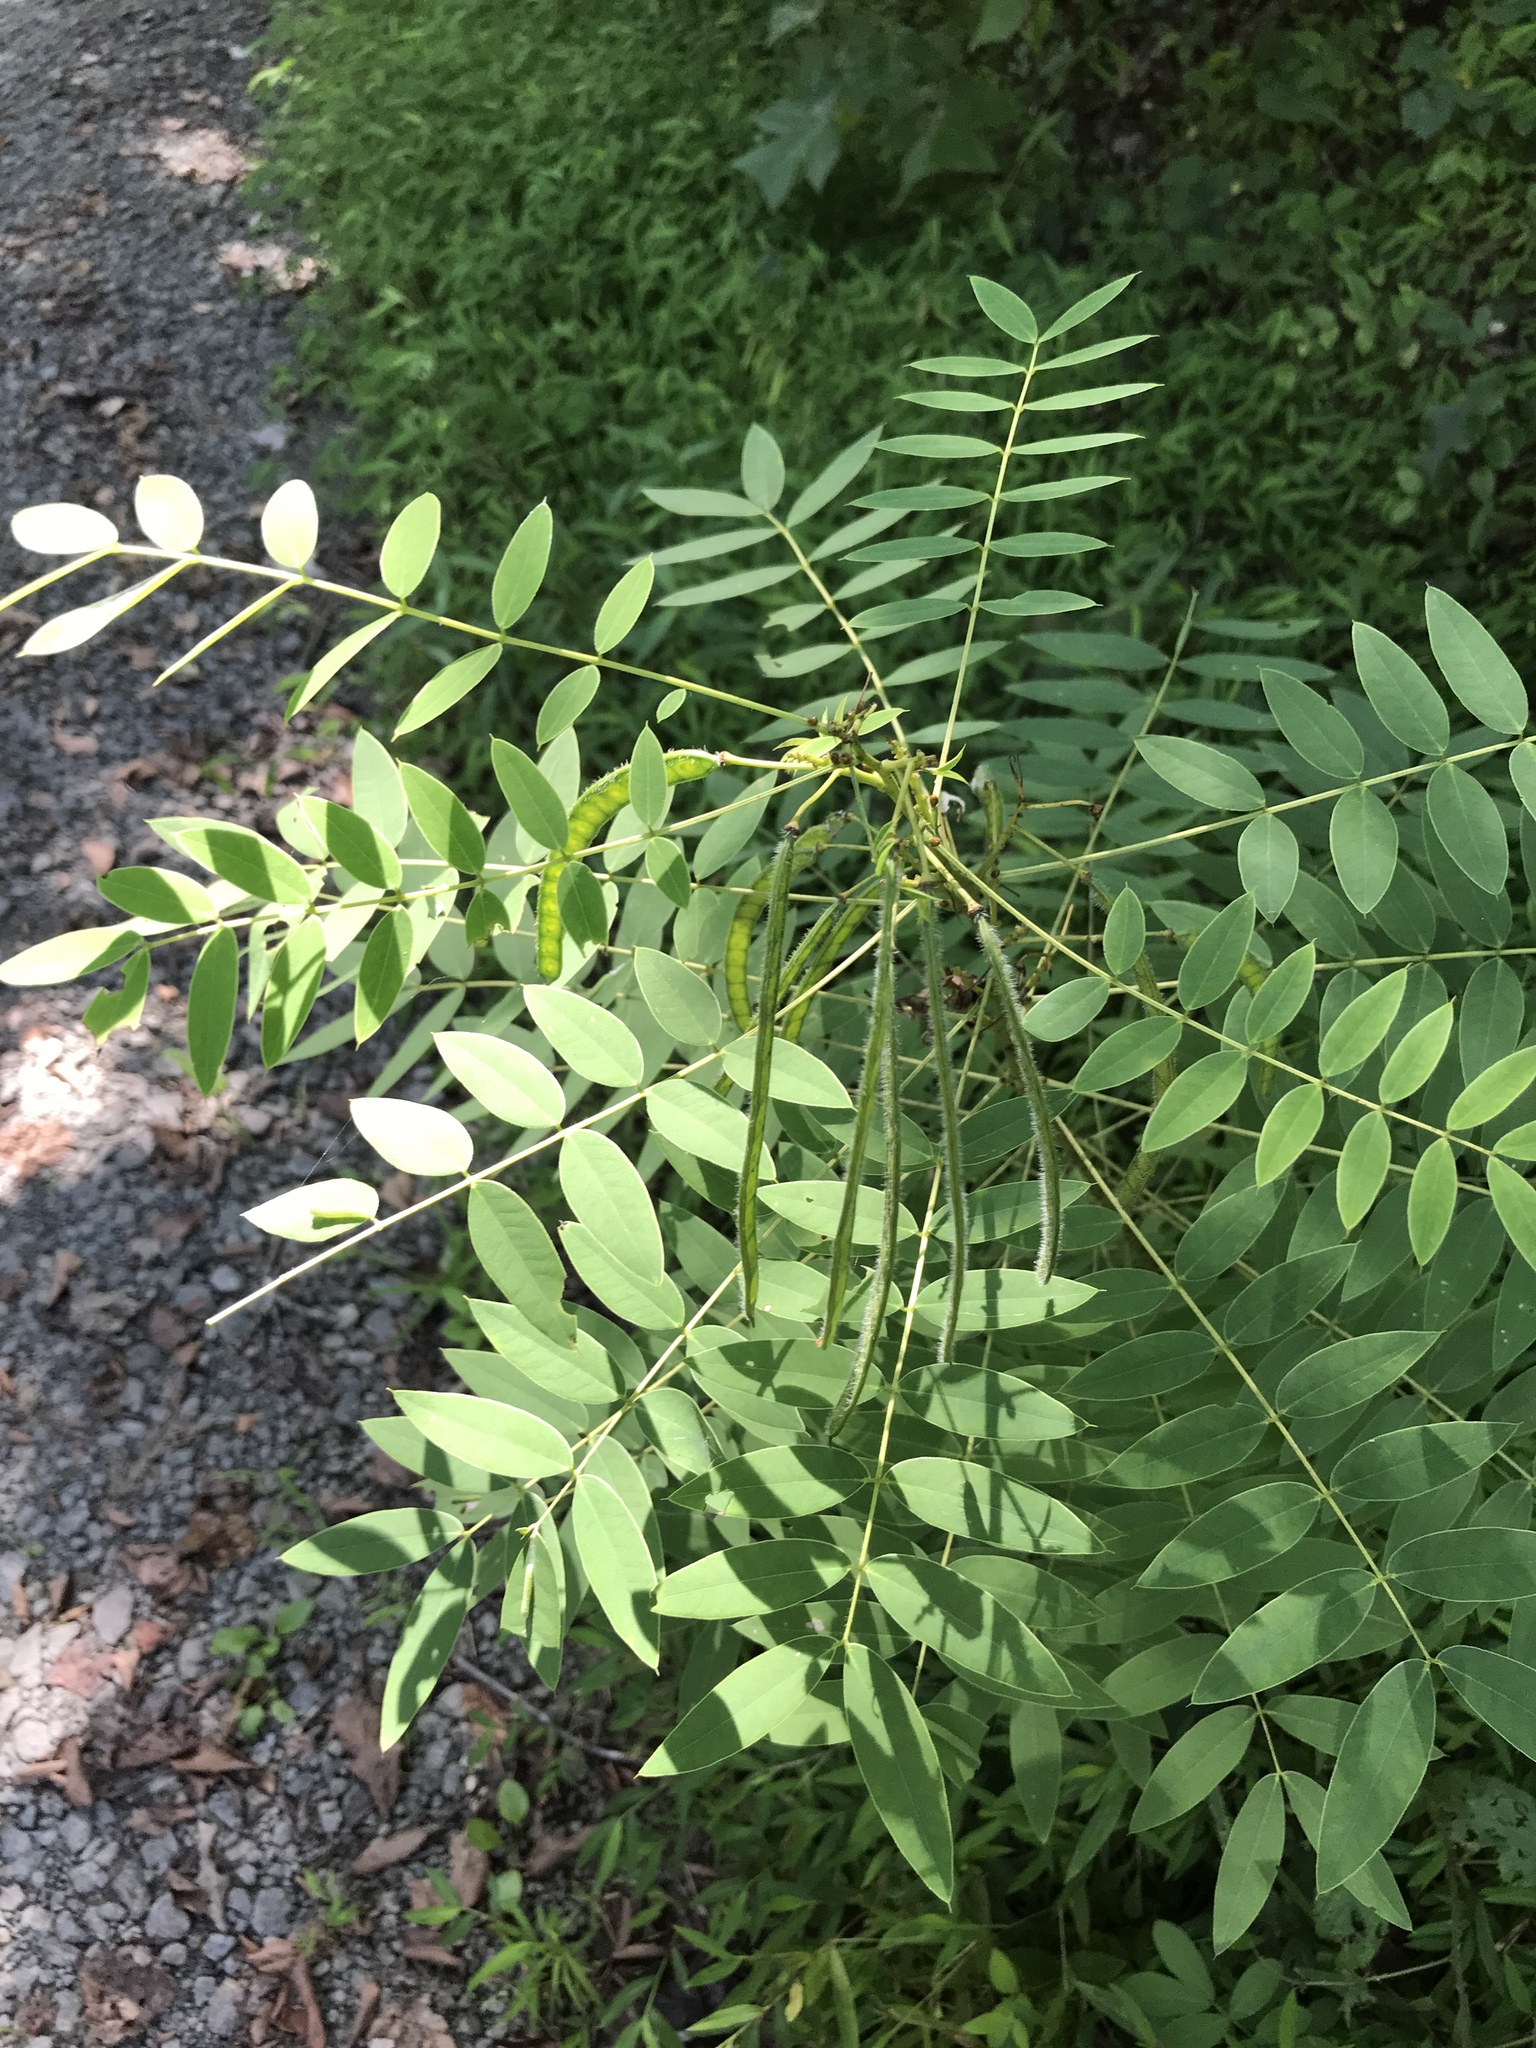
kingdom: Plantae
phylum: Tracheophyta
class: Magnoliopsida
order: Fabales
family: Fabaceae
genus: Senna
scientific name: Senna hebecarpa
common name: Wild senna
